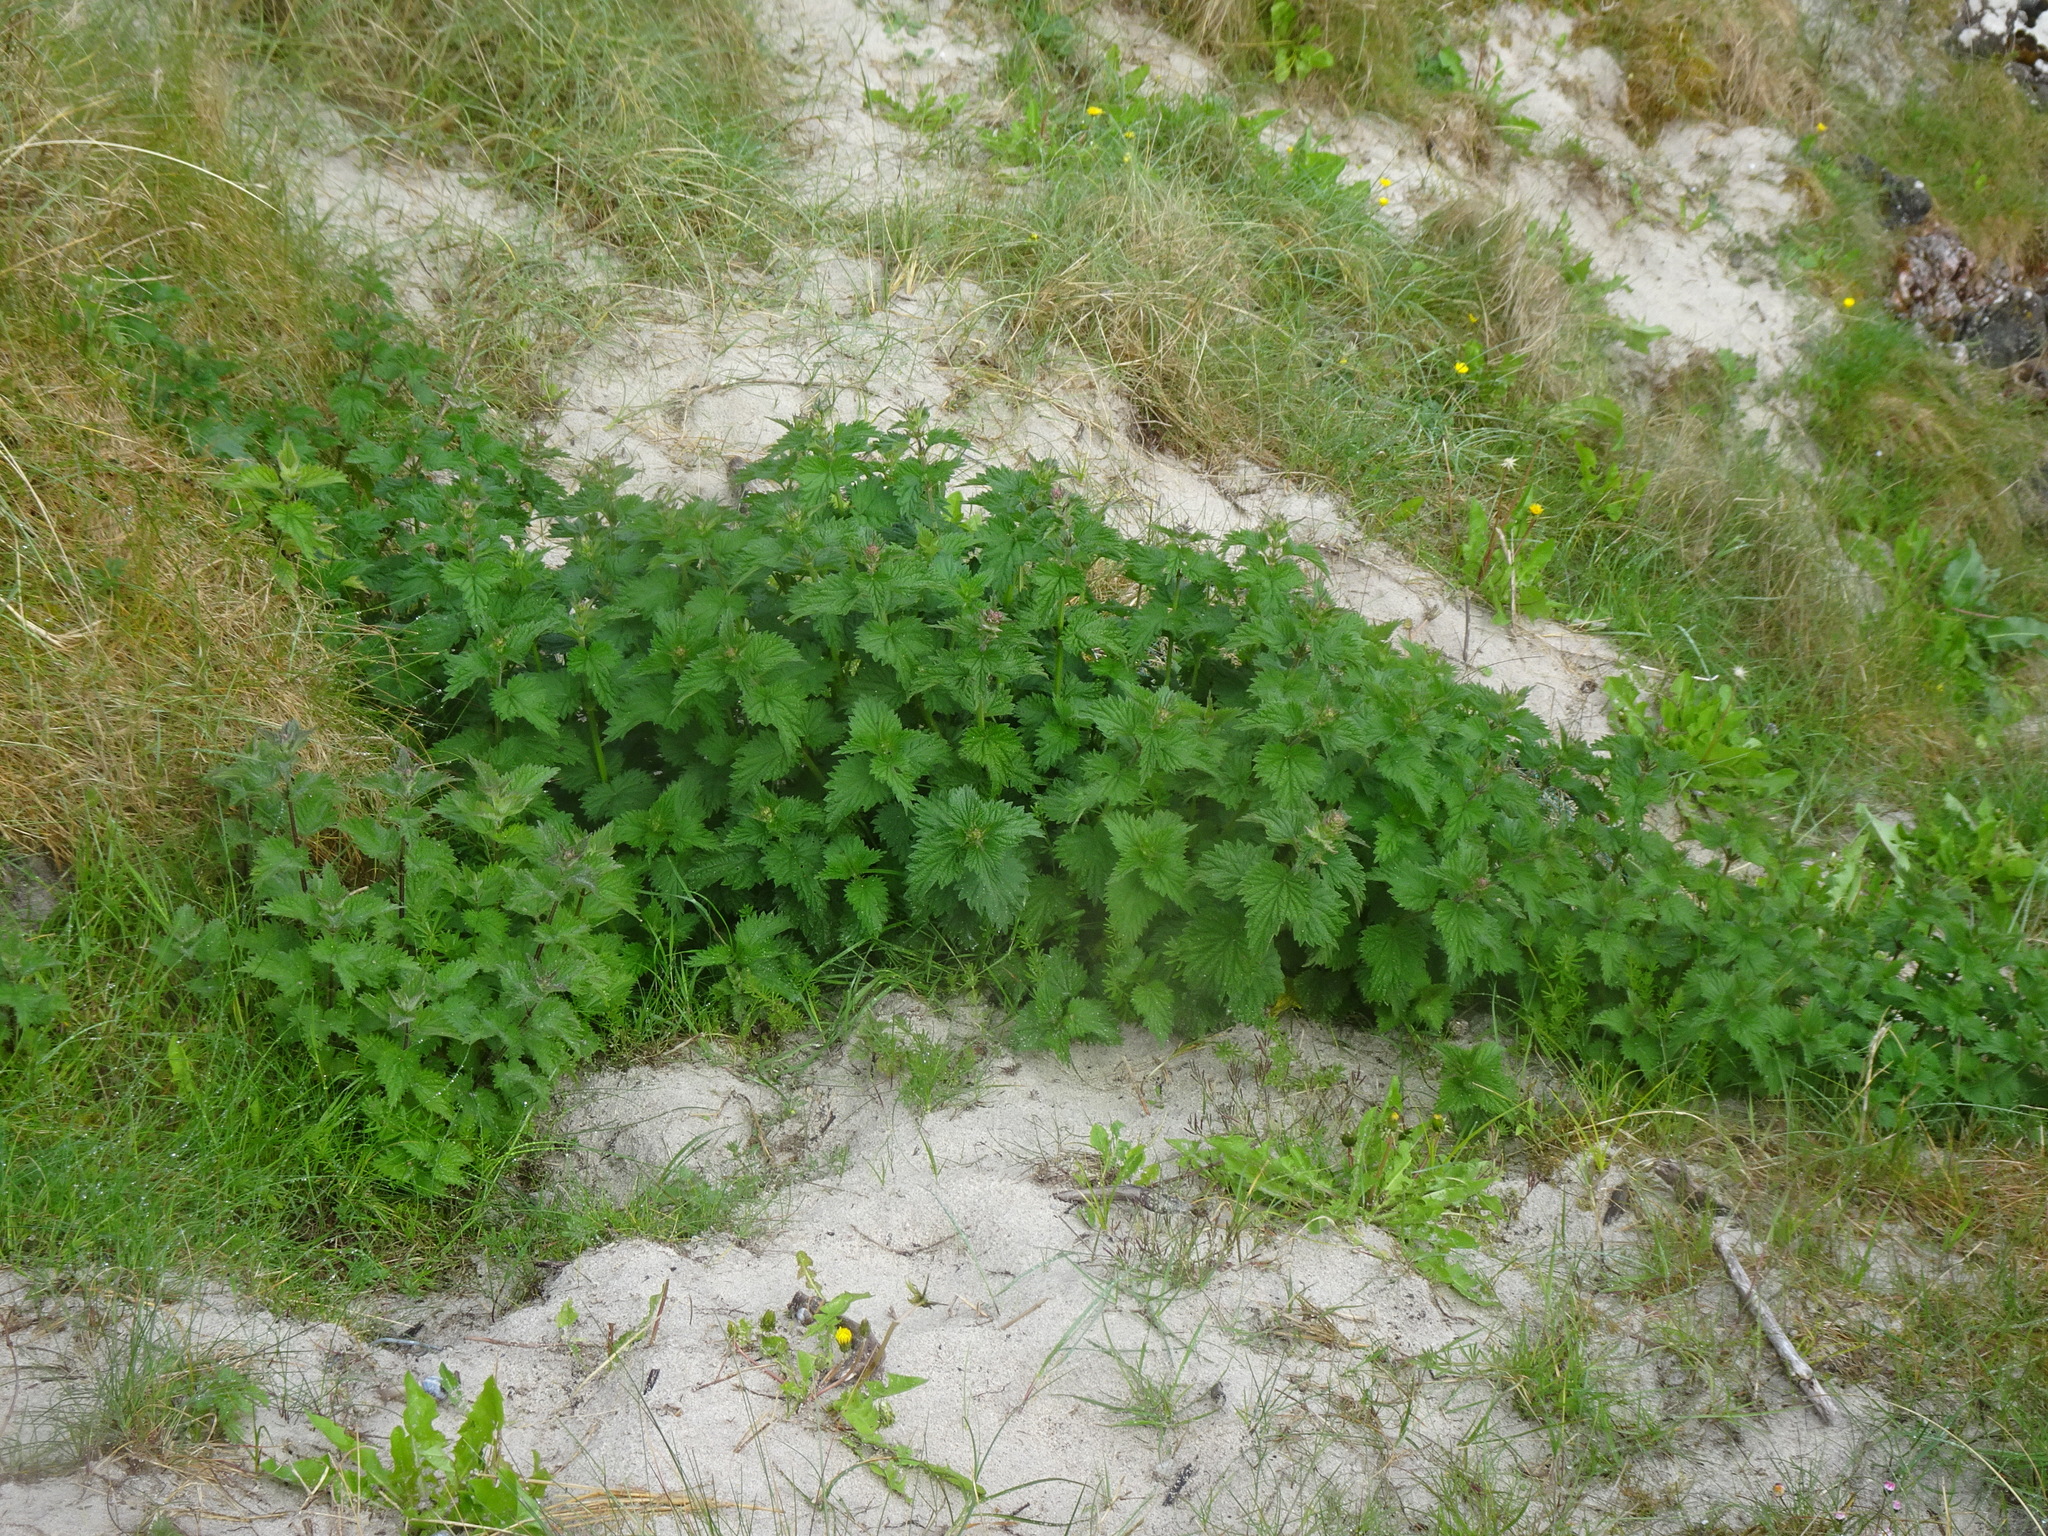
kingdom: Plantae
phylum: Tracheophyta
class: Magnoliopsida
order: Rosales
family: Urticaceae
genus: Urtica
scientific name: Urtica dioica
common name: Common nettle
